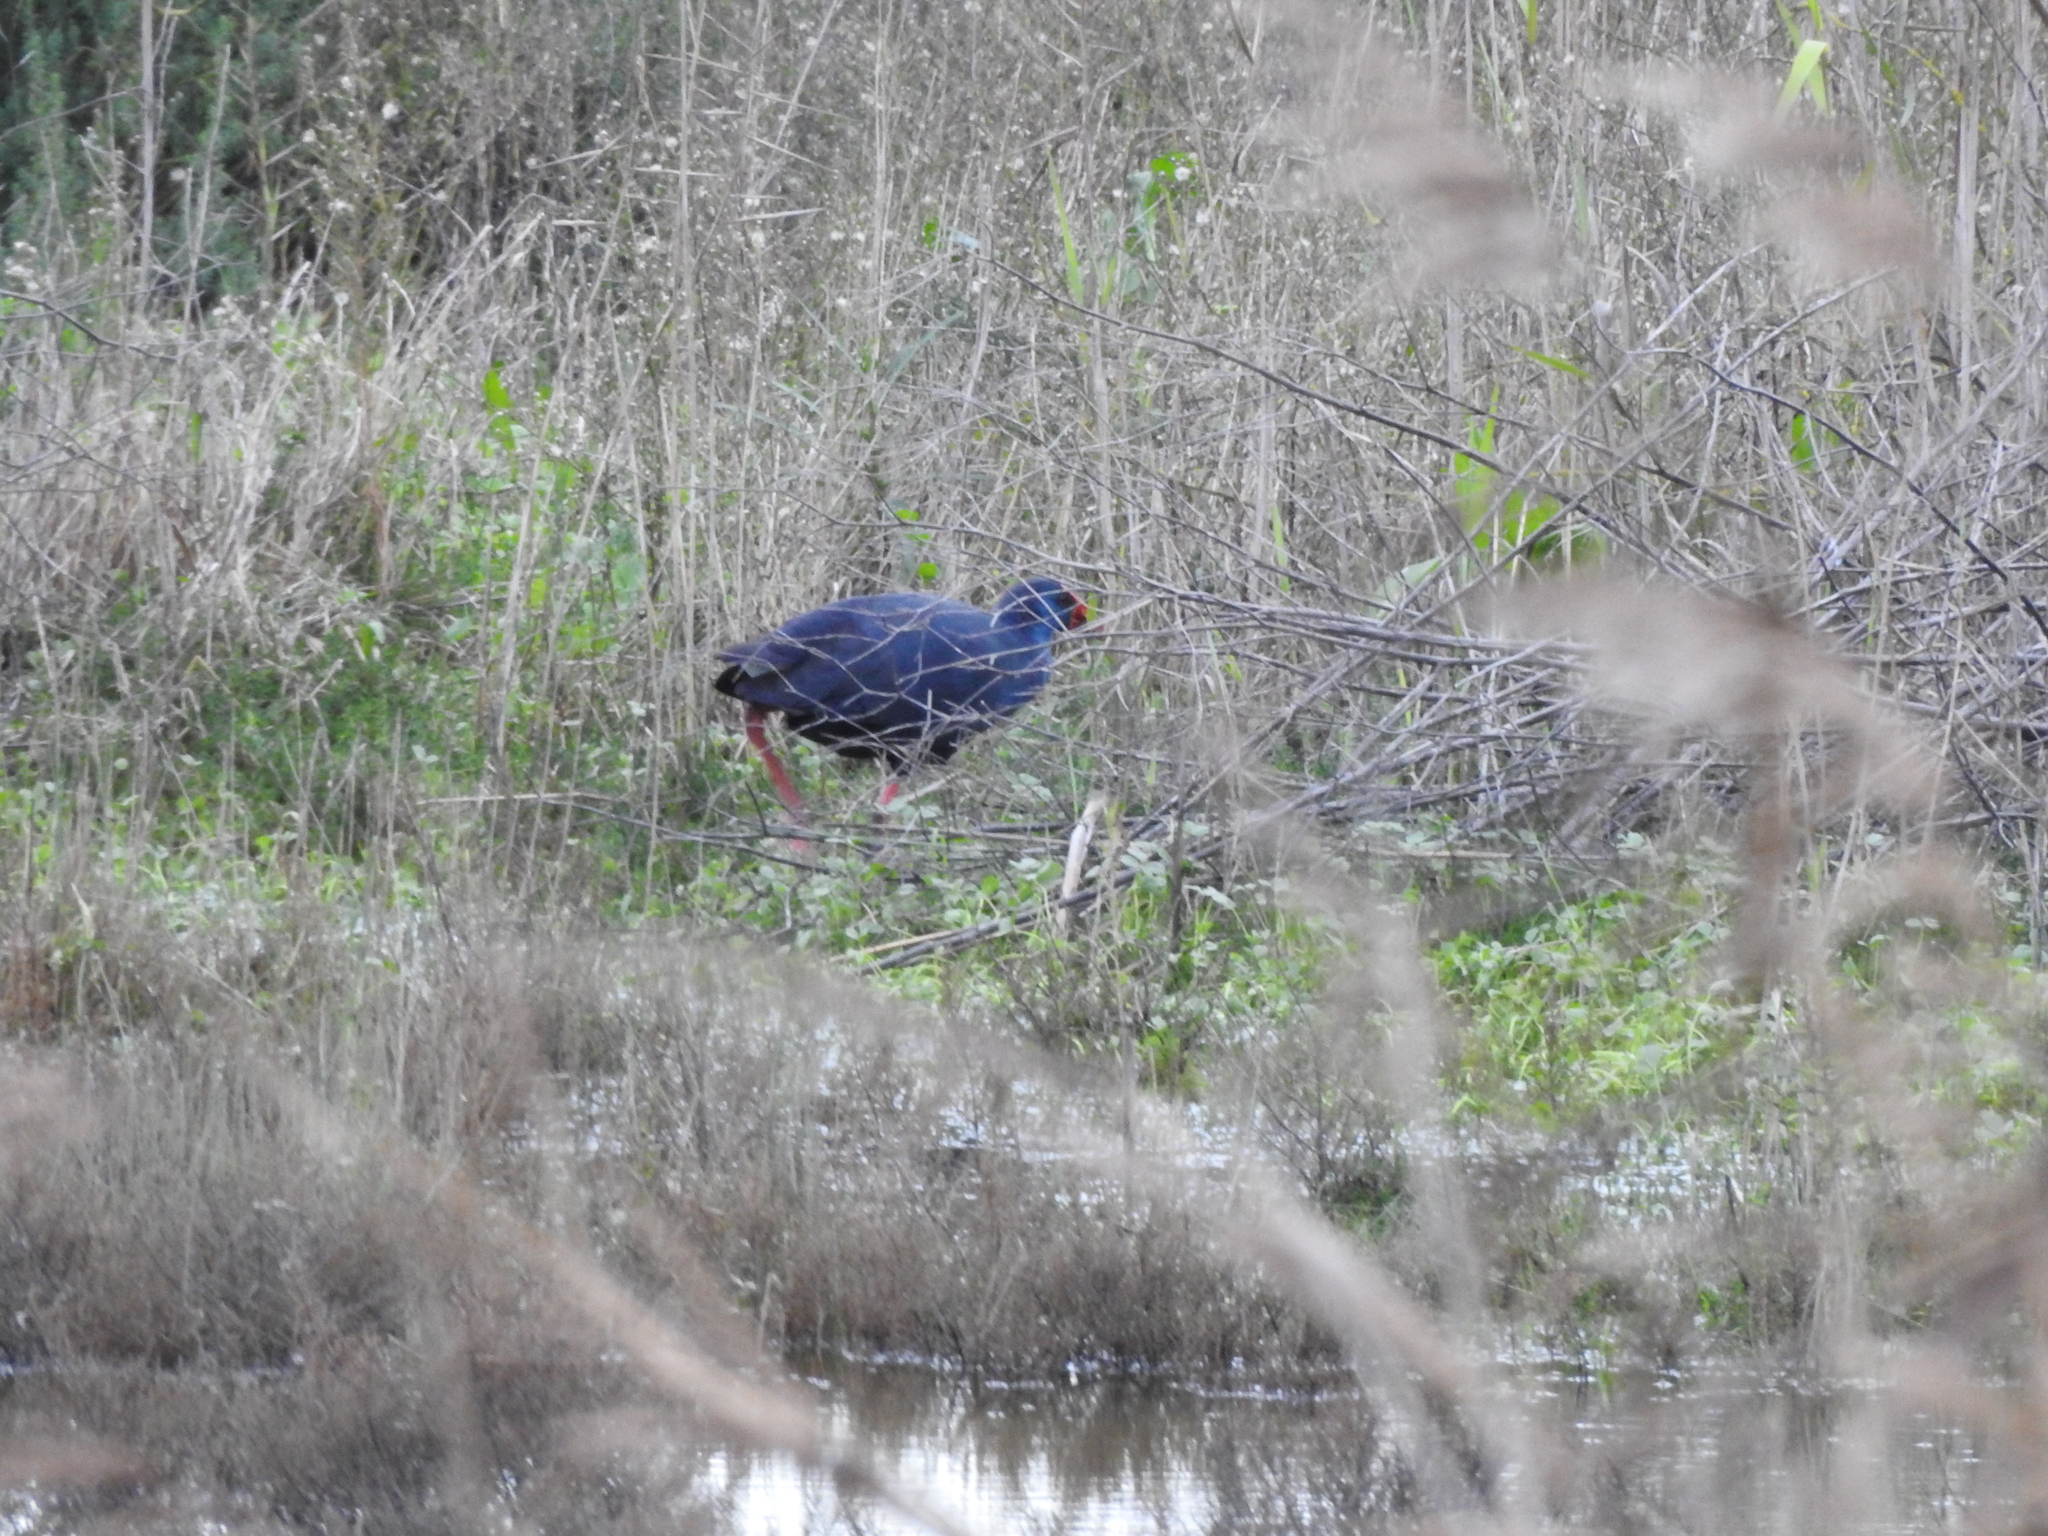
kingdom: Animalia
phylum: Chordata
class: Aves
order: Gruiformes
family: Rallidae
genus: Porphyrio
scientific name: Porphyrio porphyrio
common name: Purple swamphen
